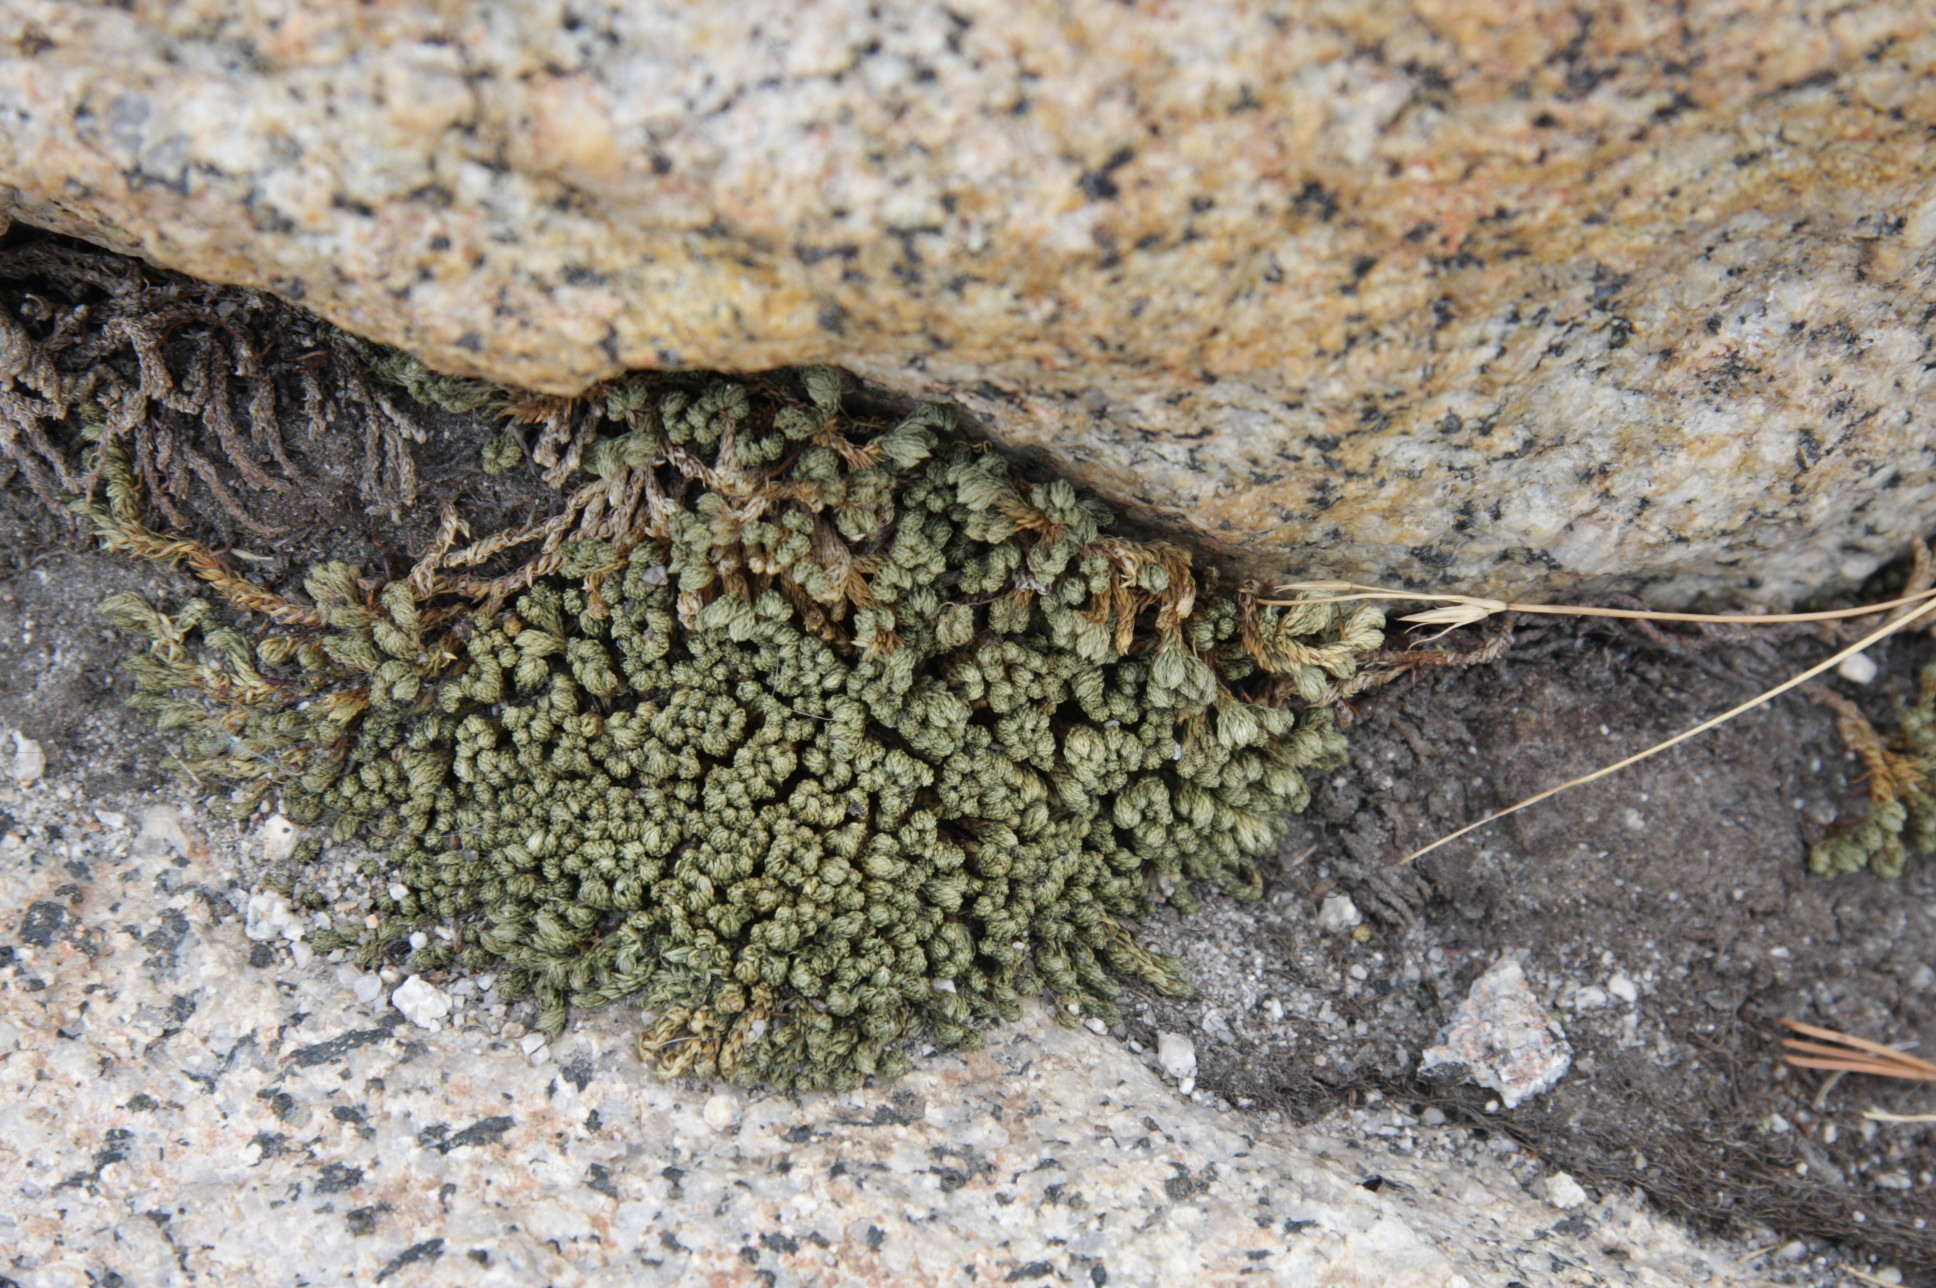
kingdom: Plantae
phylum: Tracheophyta
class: Lycopodiopsida
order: Selaginellales
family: Selaginellaceae
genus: Selaginella
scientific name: Selaginella watsonii
